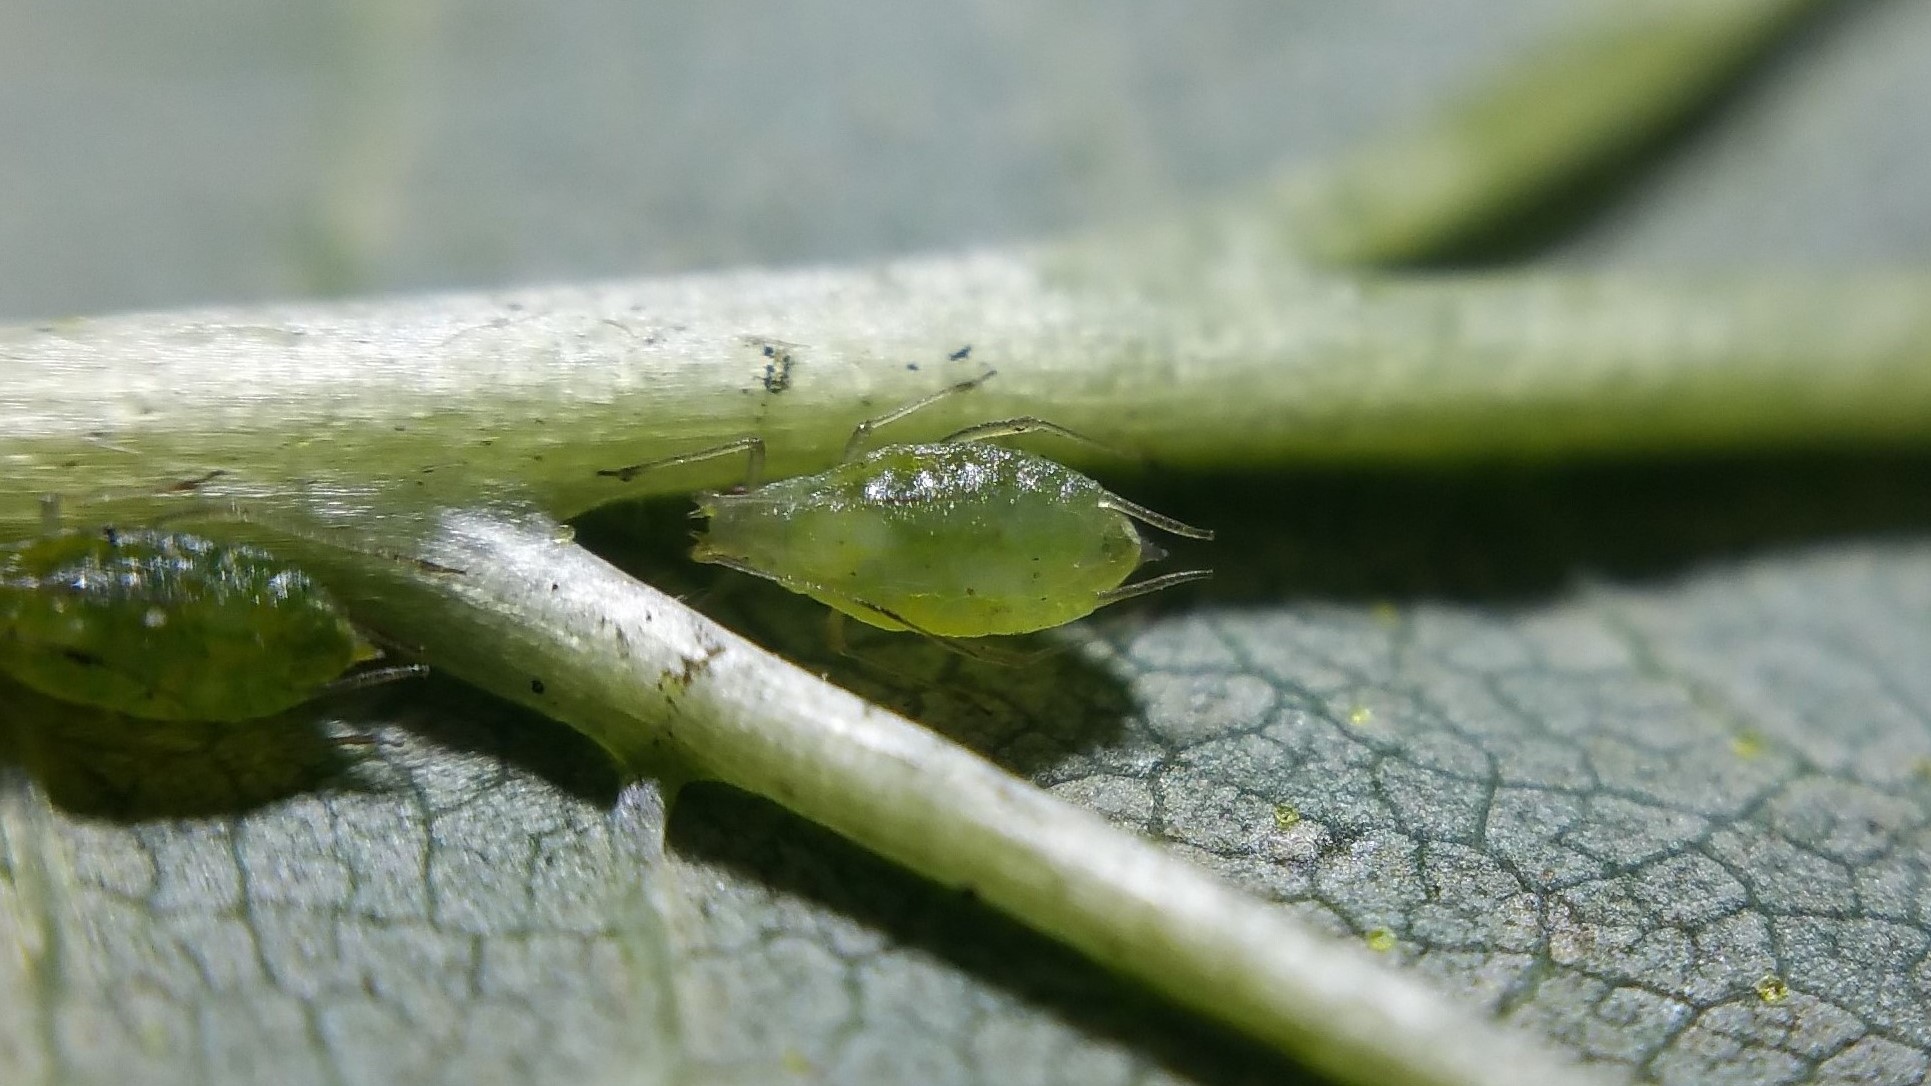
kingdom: Animalia
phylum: Arthropoda
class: Insecta
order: Hemiptera
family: Aphididae
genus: Phorodon
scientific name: Phorodon humuli
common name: Hop aphid
